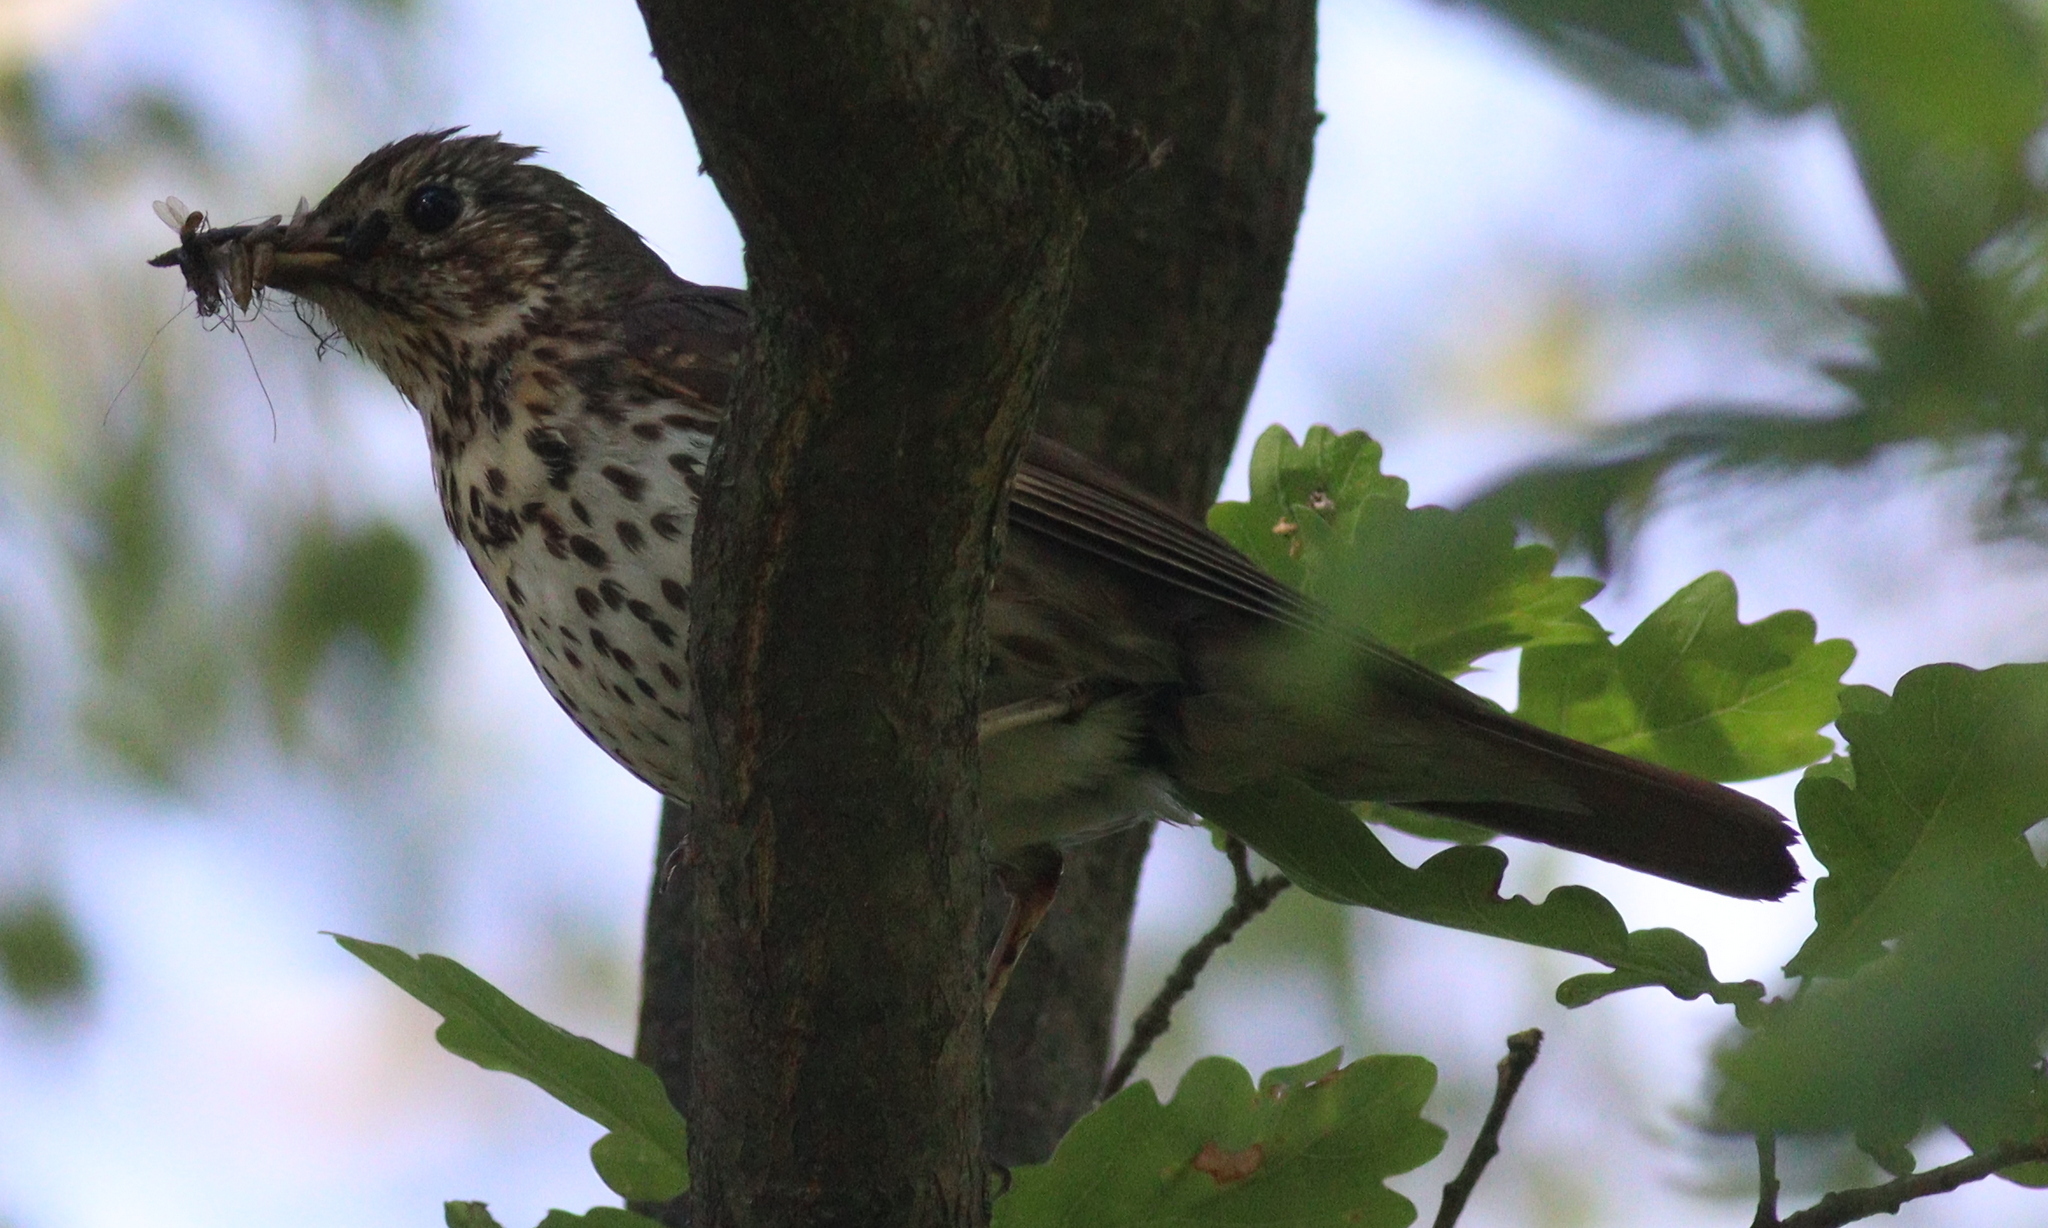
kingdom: Animalia
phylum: Chordata
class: Aves
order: Passeriformes
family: Turdidae
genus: Turdus
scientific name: Turdus philomelos
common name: Song thrush
